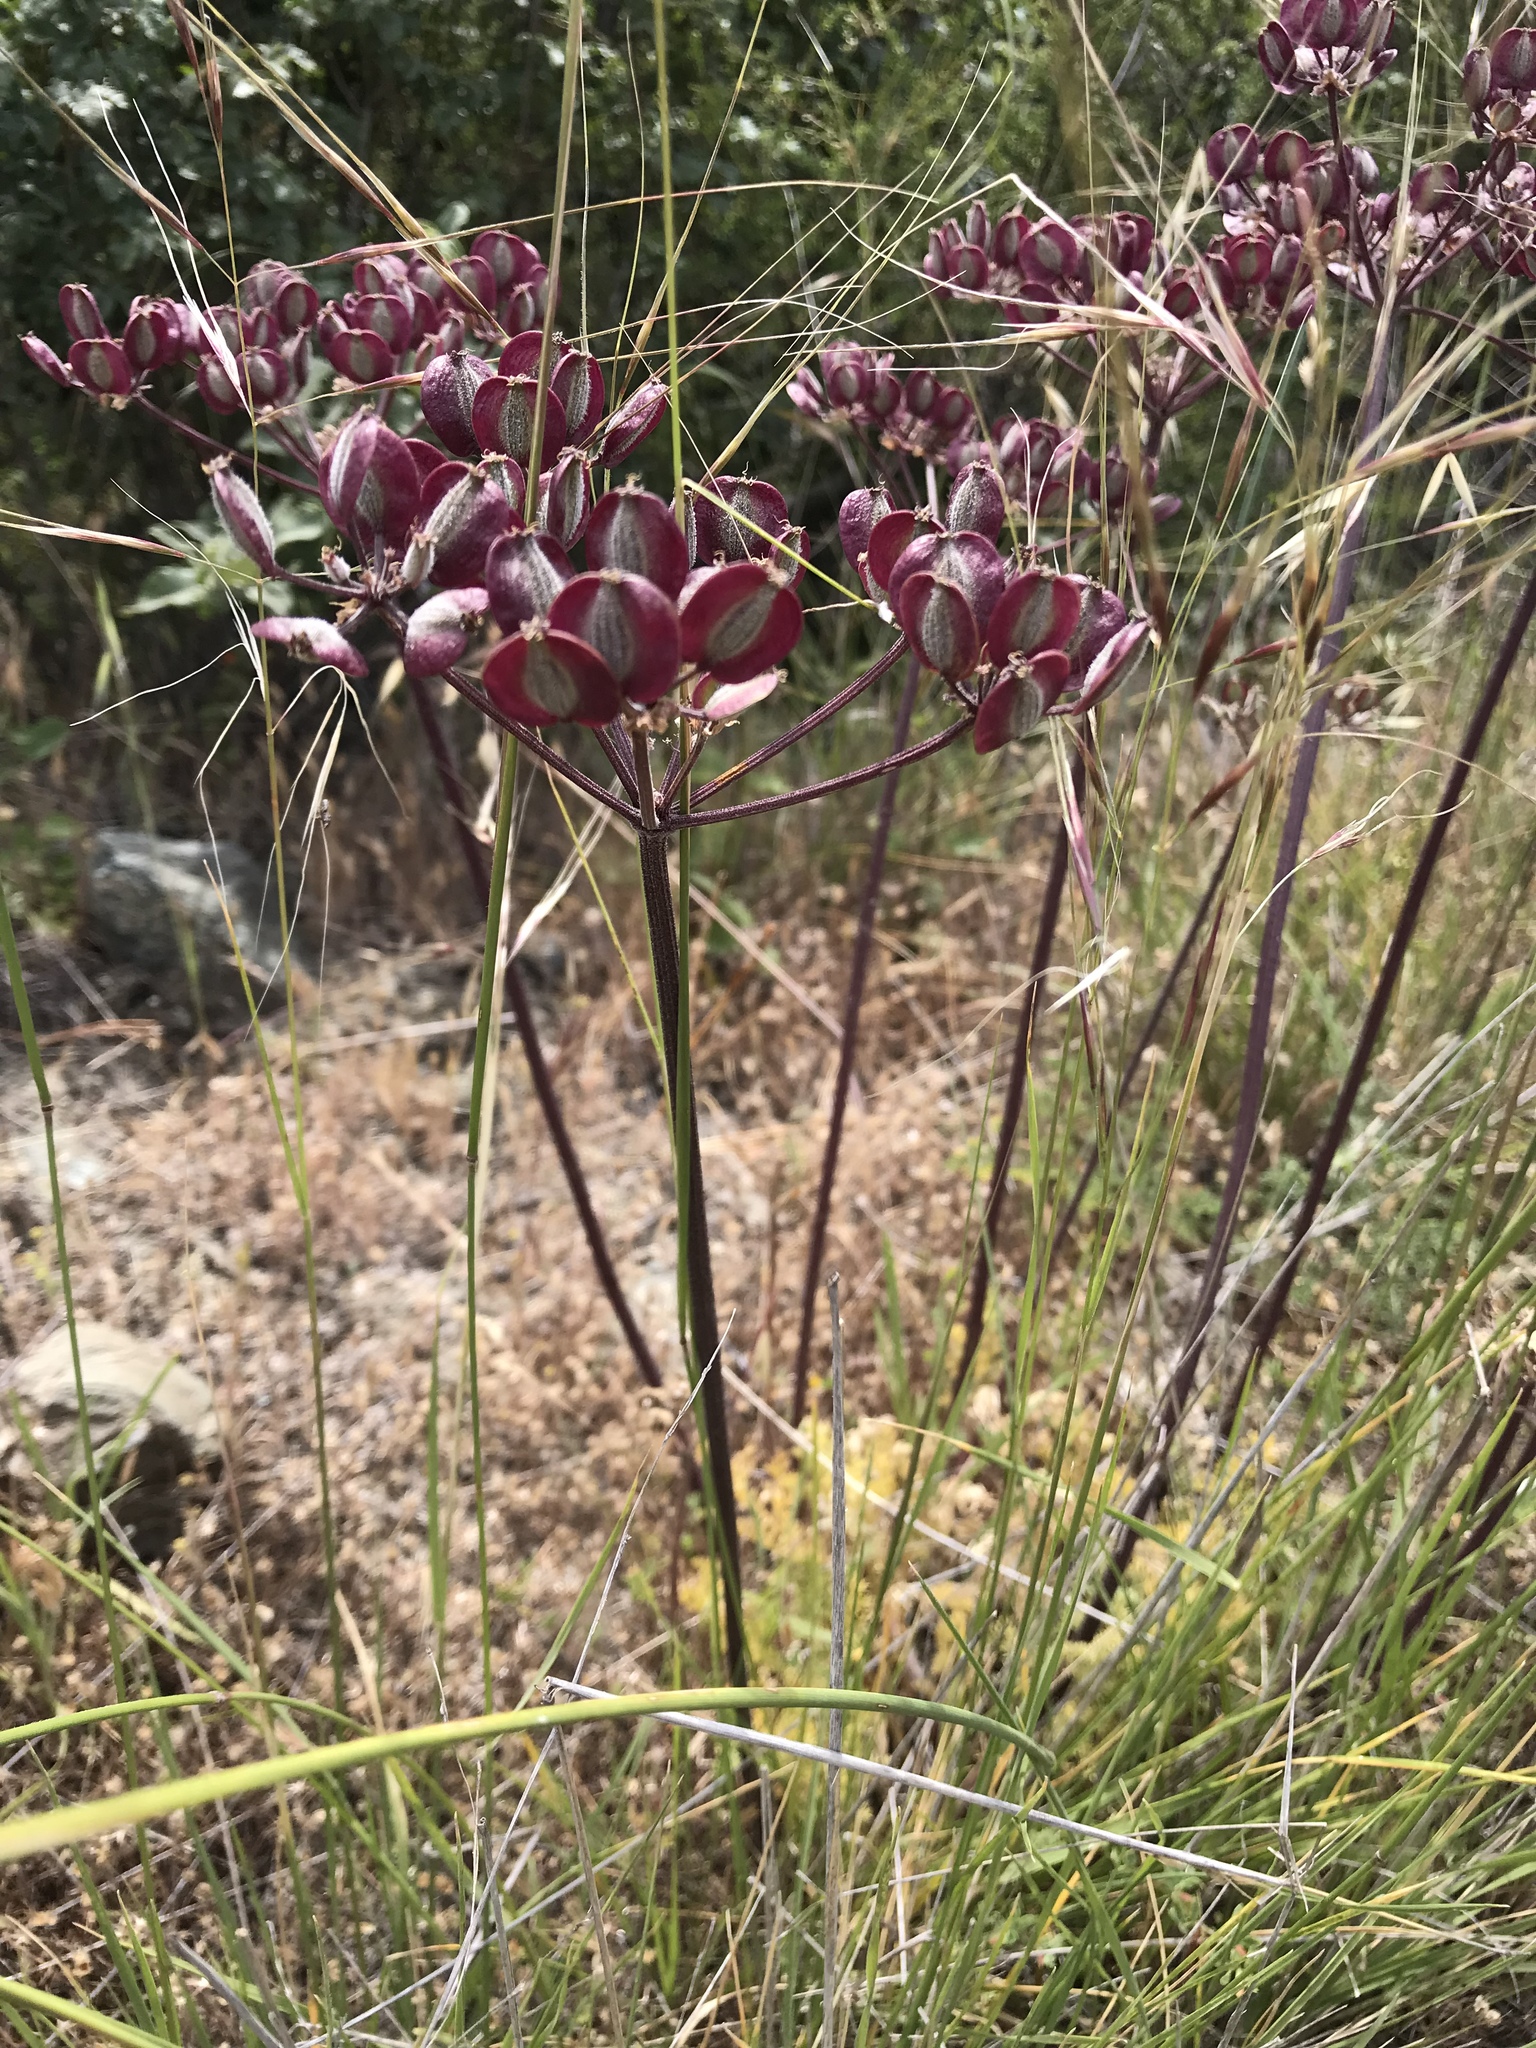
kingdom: Plantae
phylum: Tracheophyta
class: Magnoliopsida
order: Apiales
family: Apiaceae
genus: Lomatium
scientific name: Lomatium dasycarpum
